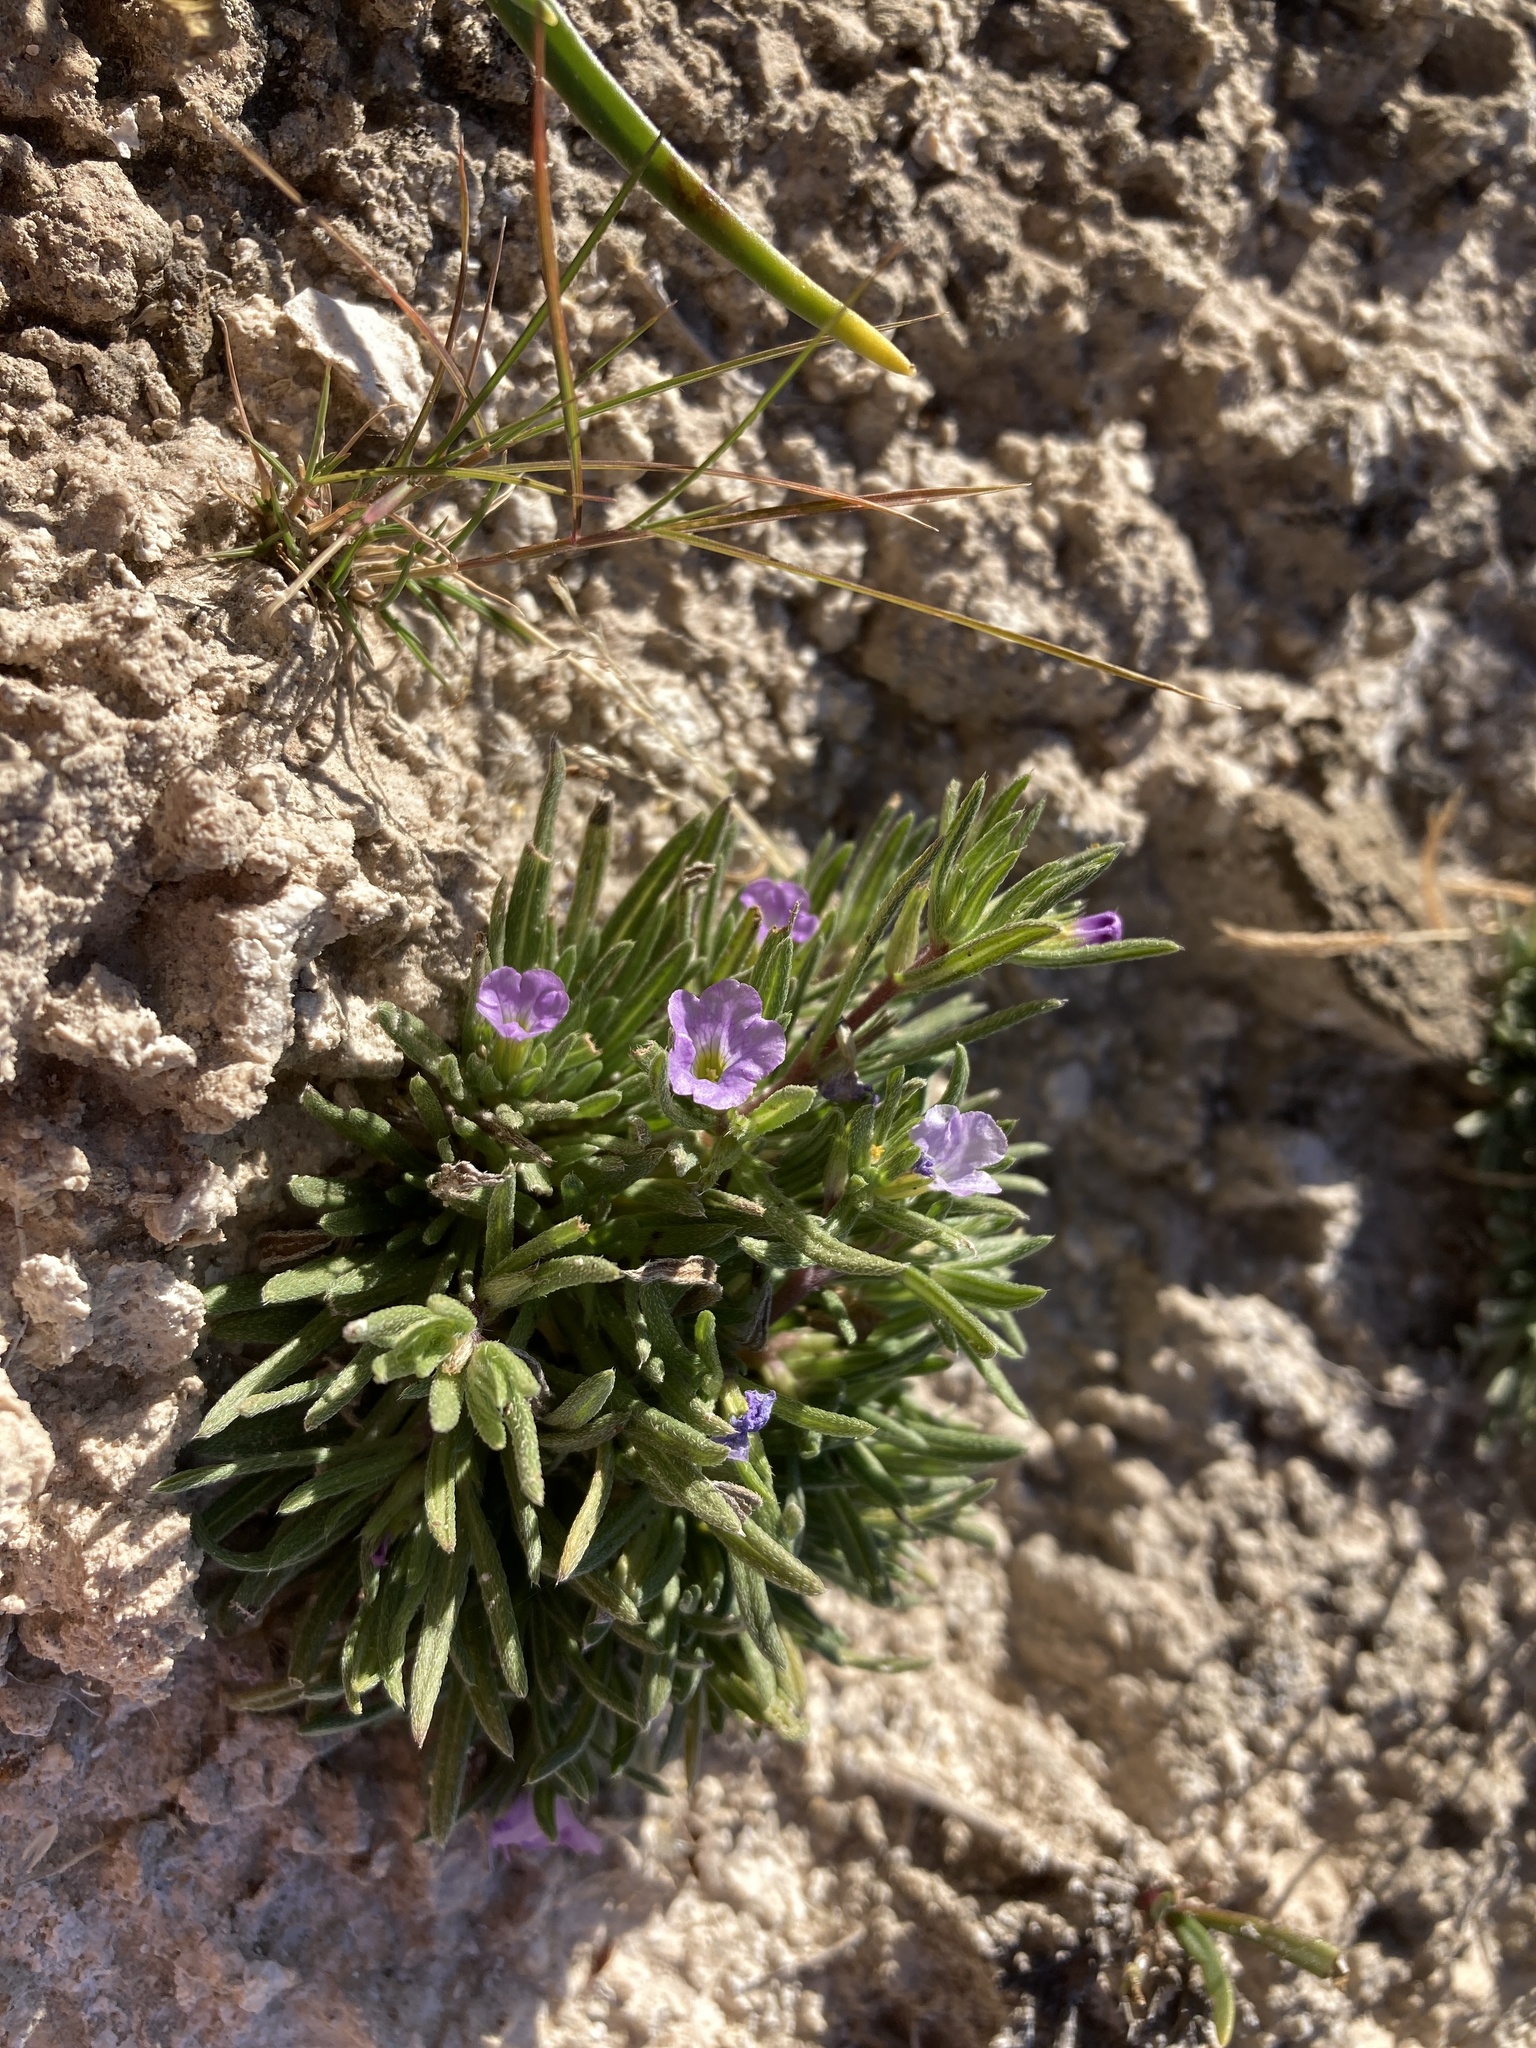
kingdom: Plantae
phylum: Tracheophyta
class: Magnoliopsida
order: Boraginales
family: Namaceae
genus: Nama
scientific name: Nama stevensii
